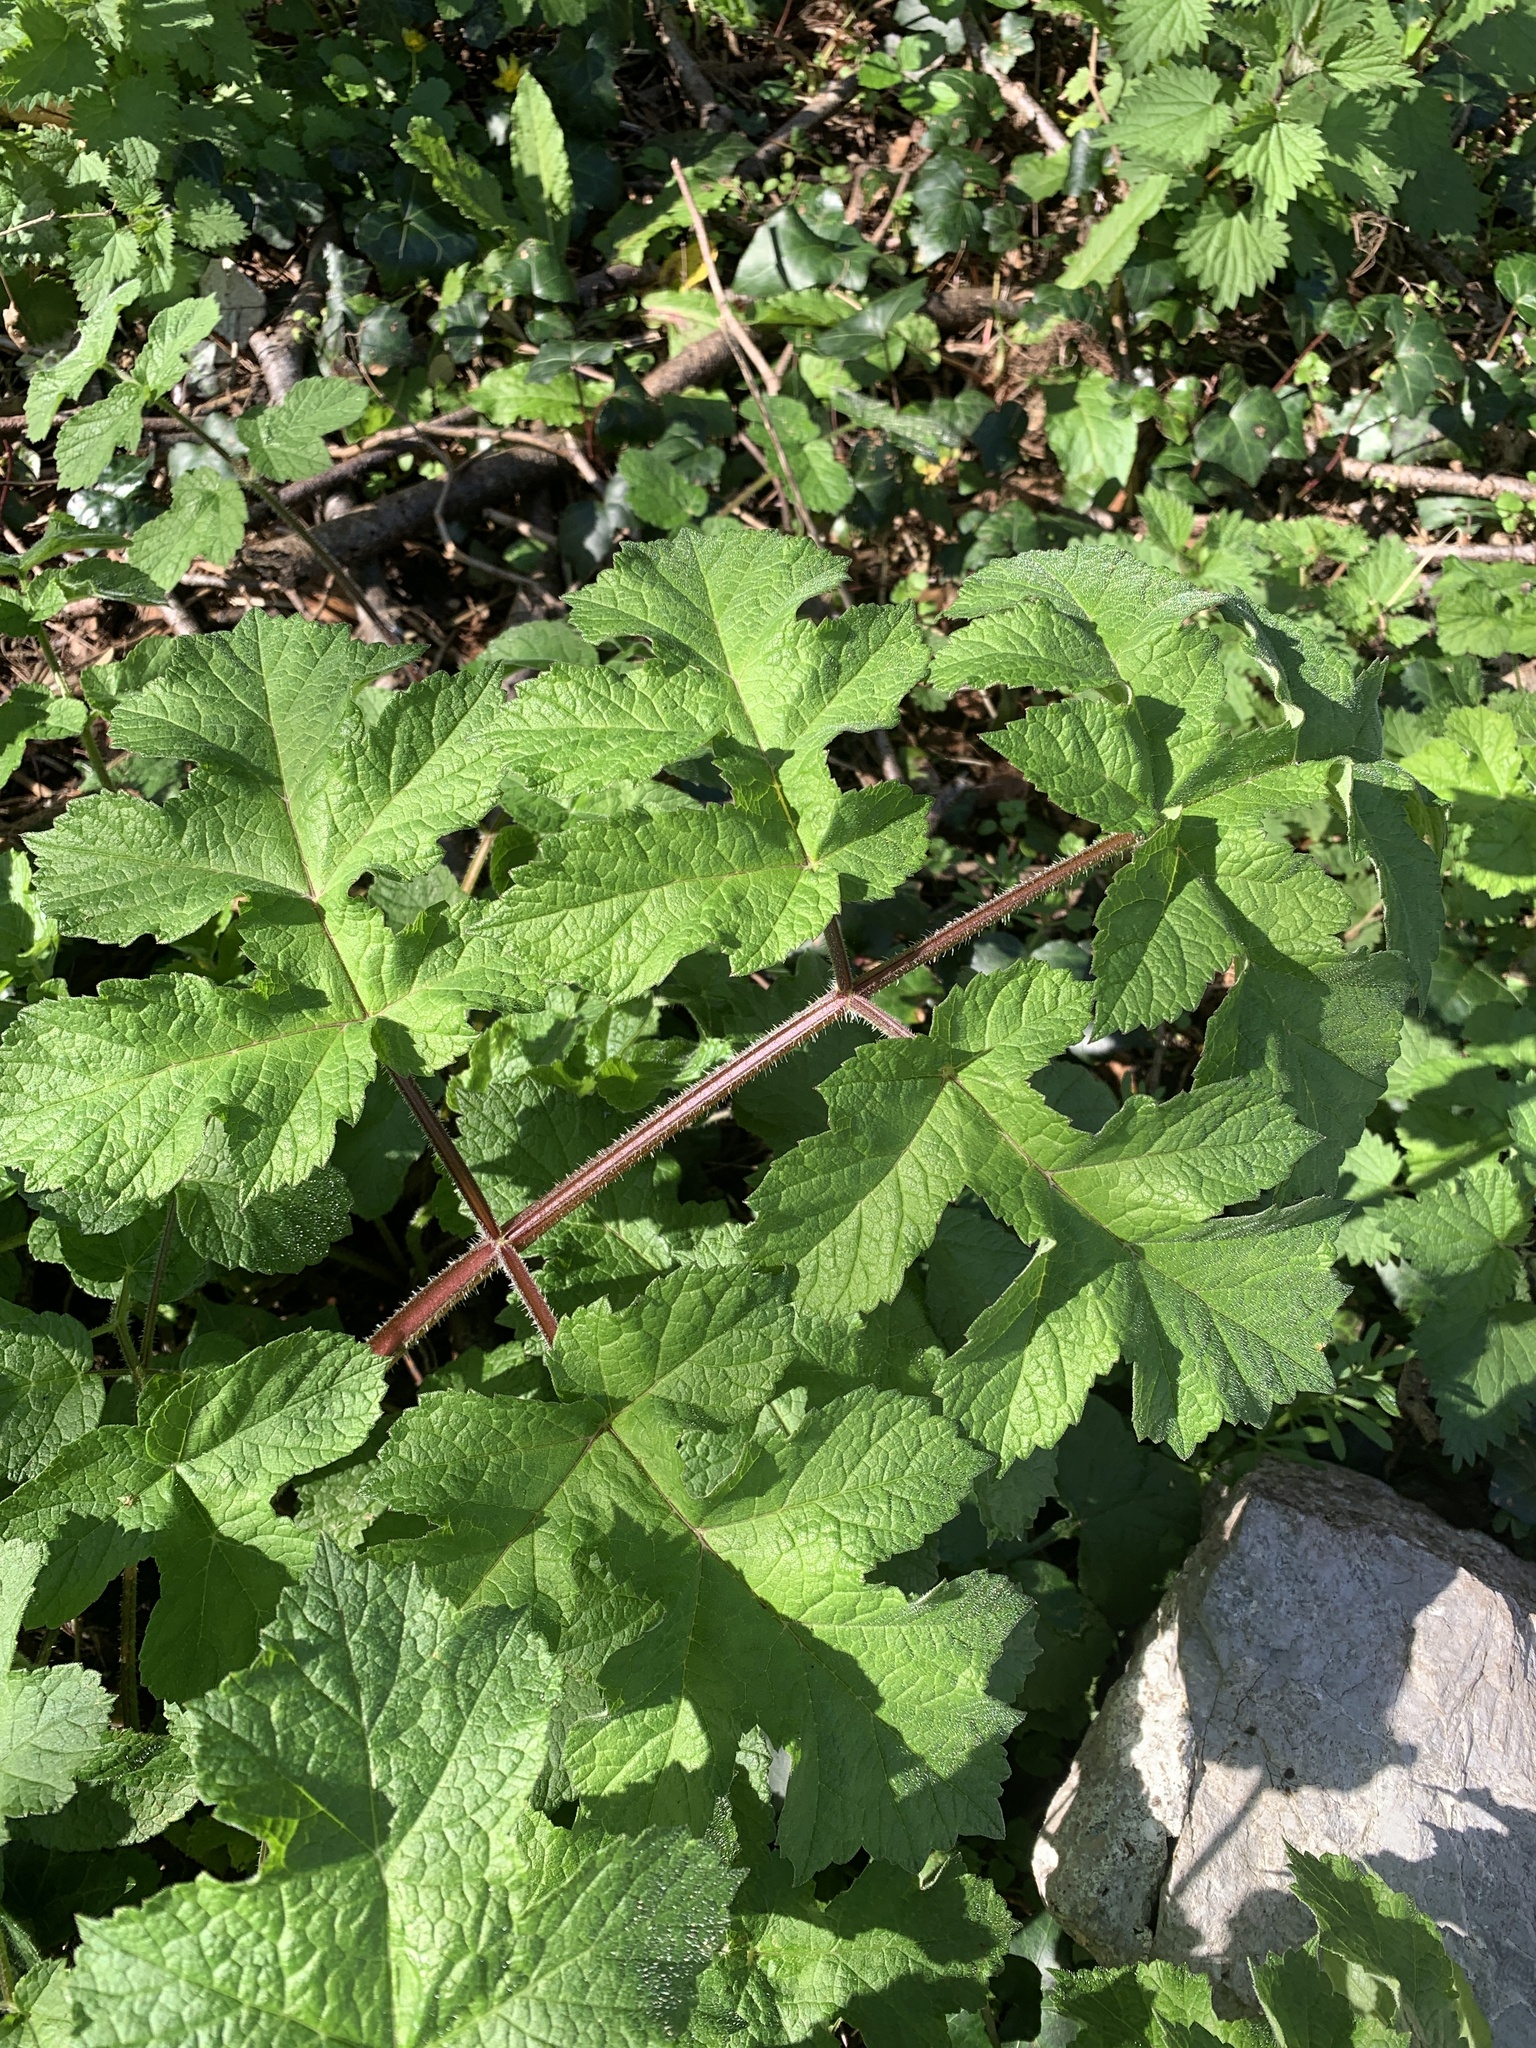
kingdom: Plantae
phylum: Tracheophyta
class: Magnoliopsida
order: Apiales
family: Apiaceae
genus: Heracleum
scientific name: Heracleum sphondylium
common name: Hogweed
